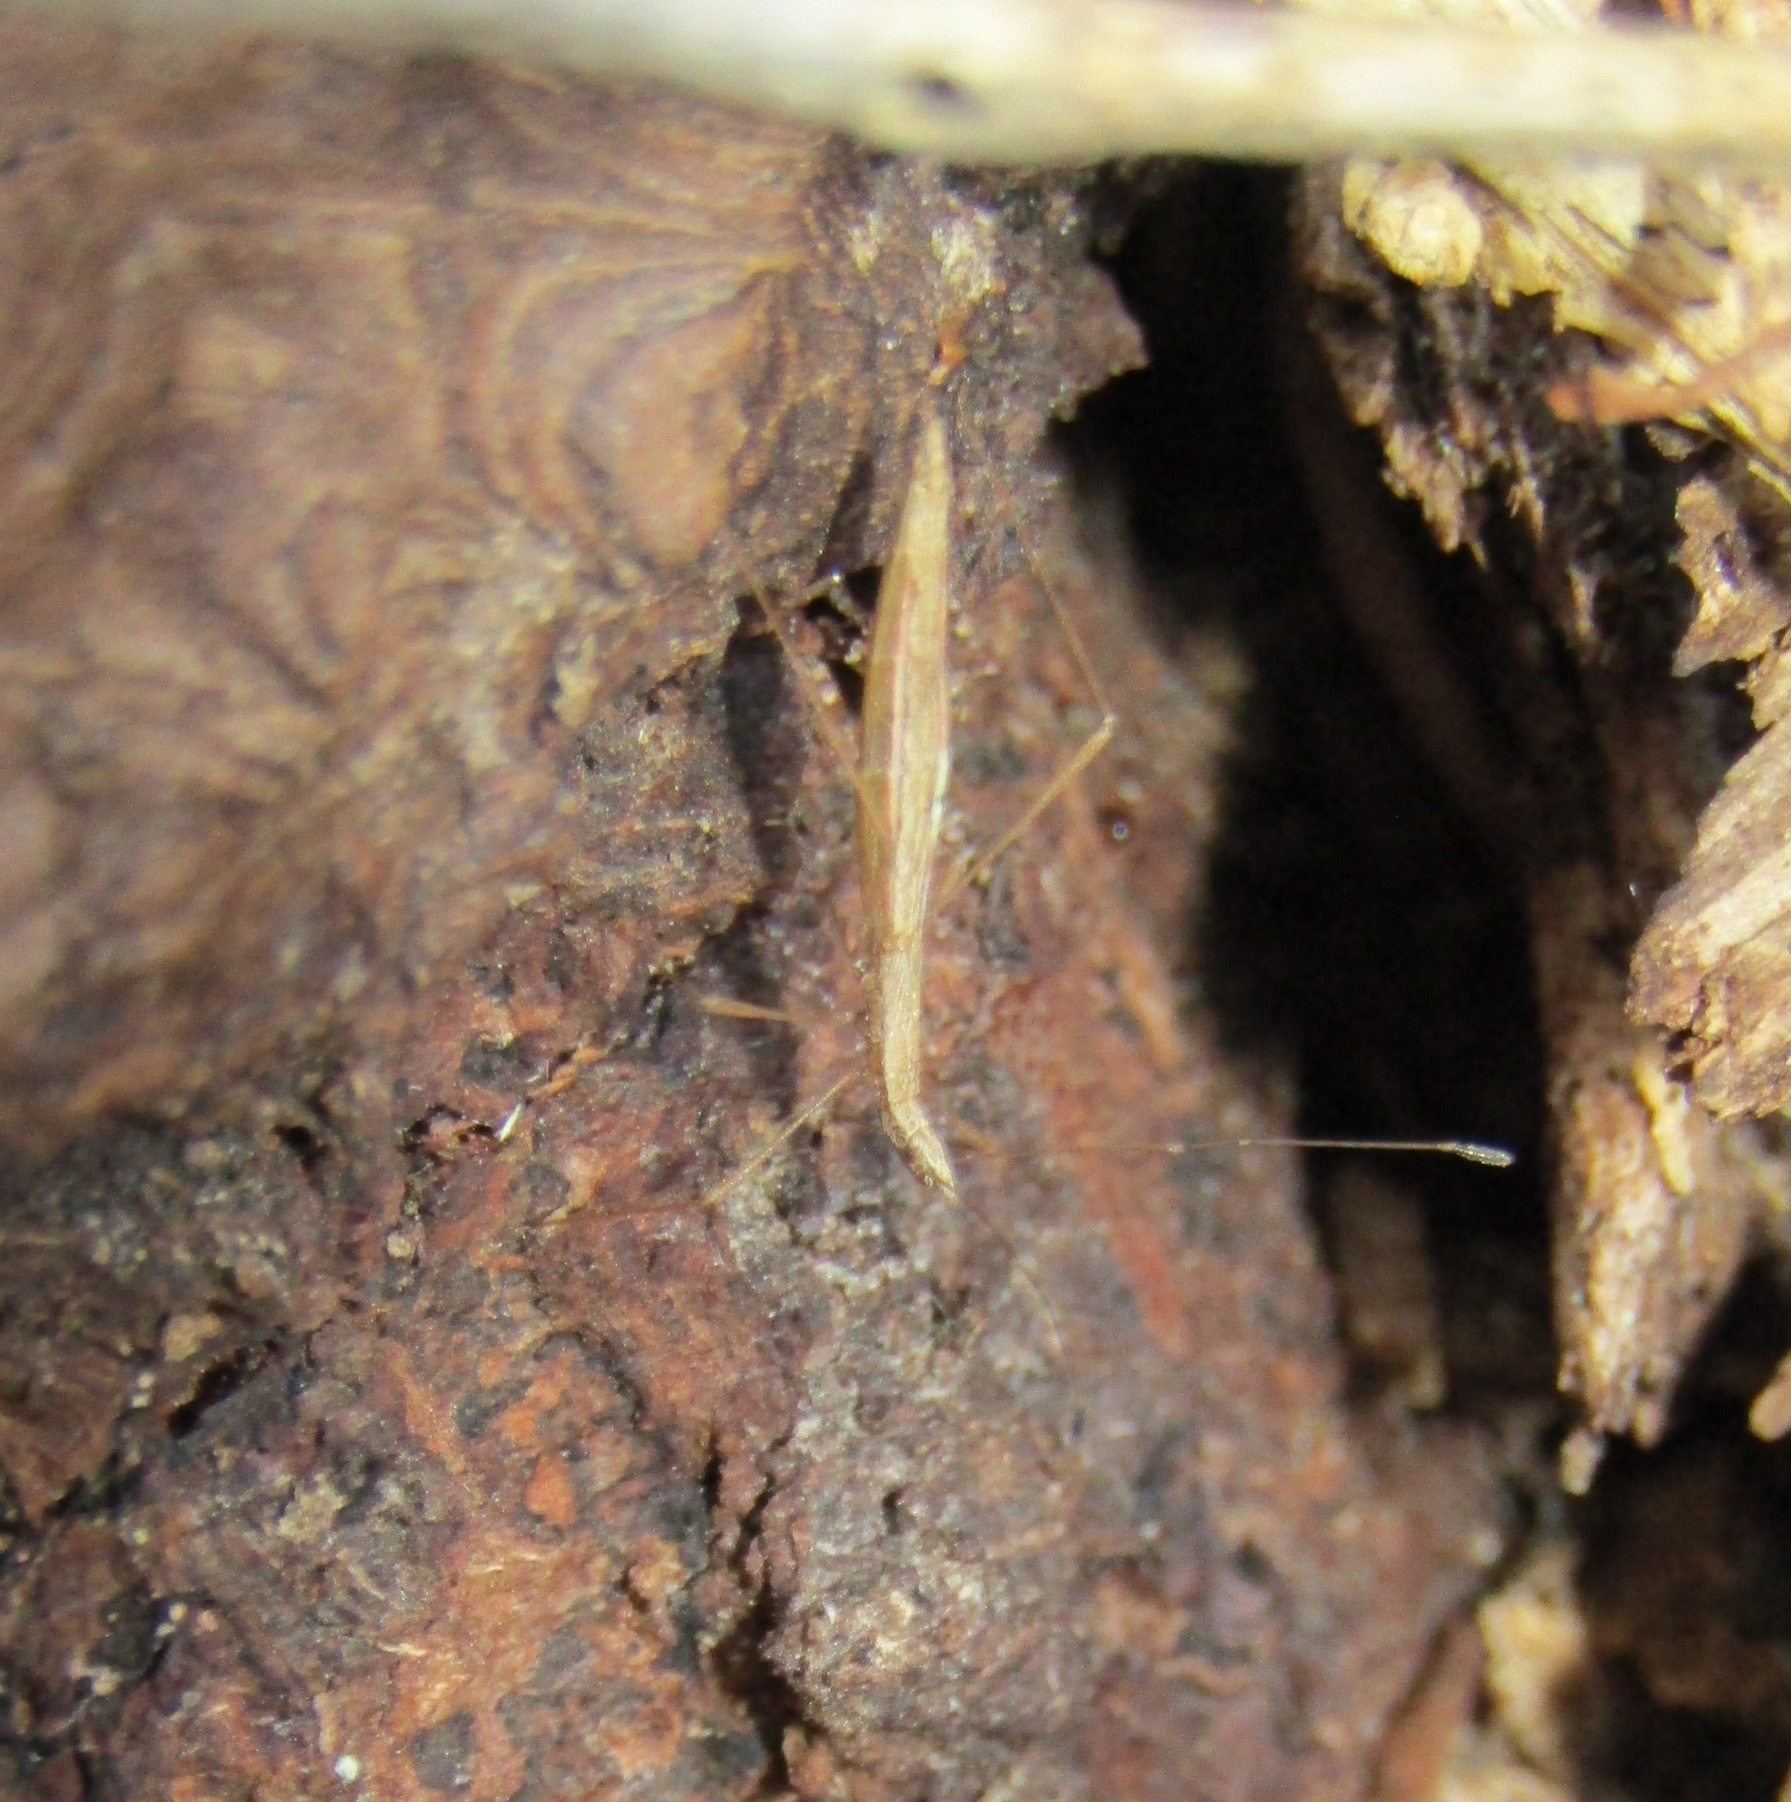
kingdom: Animalia
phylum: Arthropoda
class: Insecta
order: Hemiptera
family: Berytidae
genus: Bezu
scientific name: Bezu wakefieldi
